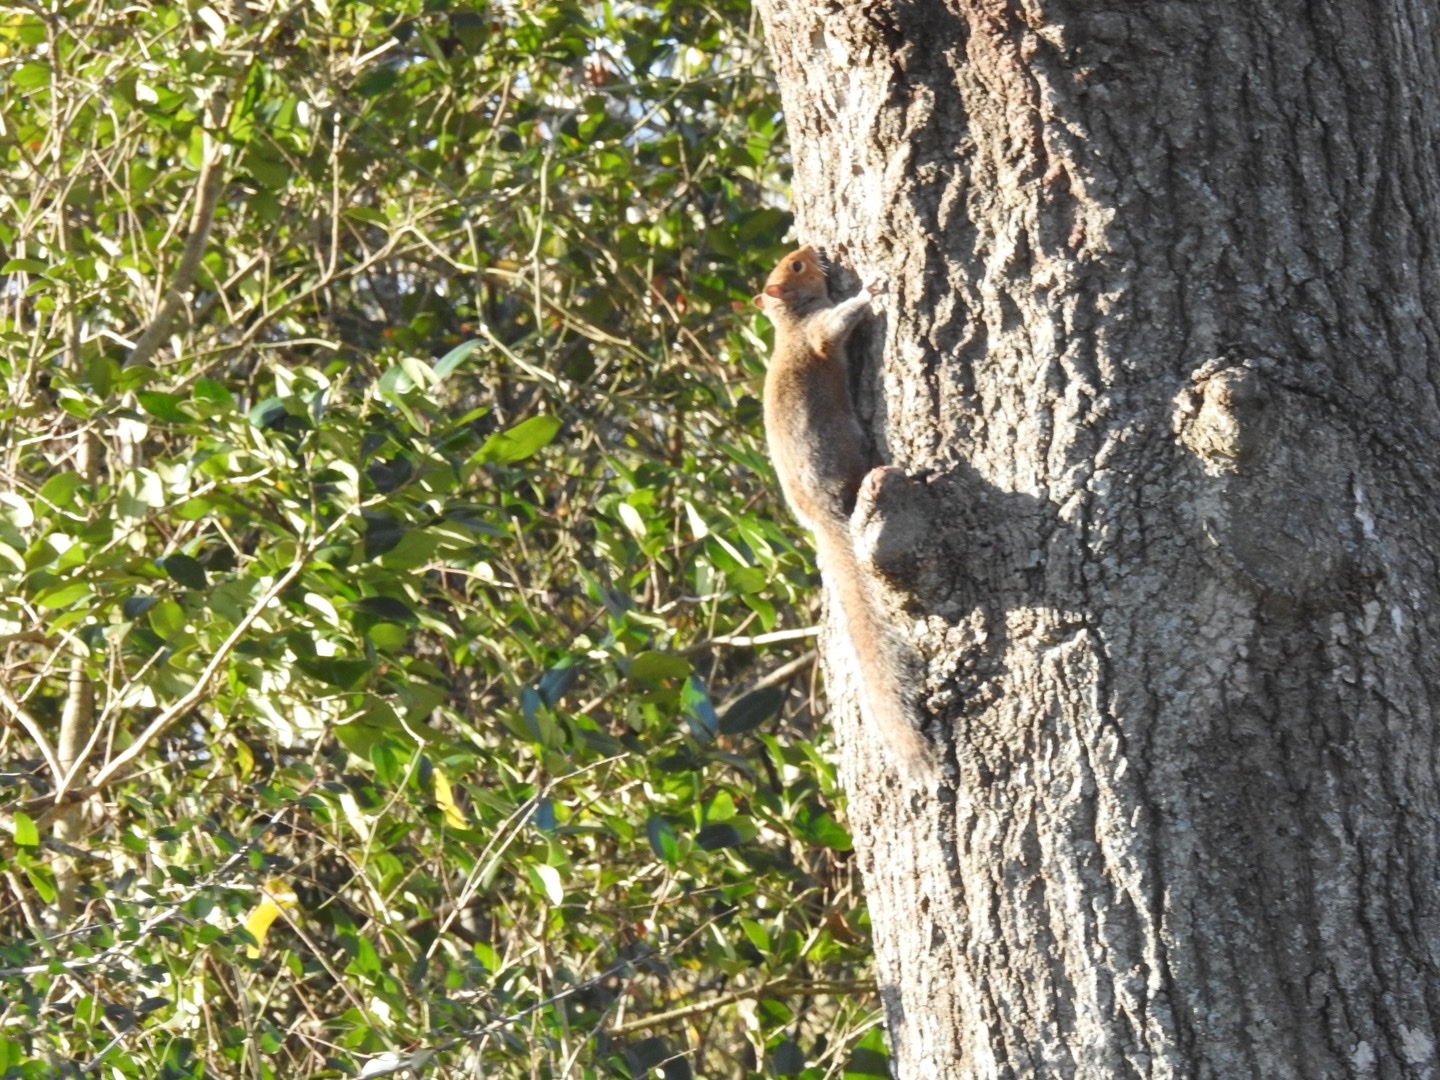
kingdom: Animalia
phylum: Chordata
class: Mammalia
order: Rodentia
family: Sciuridae
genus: Sciurus
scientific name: Sciurus carolinensis
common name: Eastern gray squirrel
